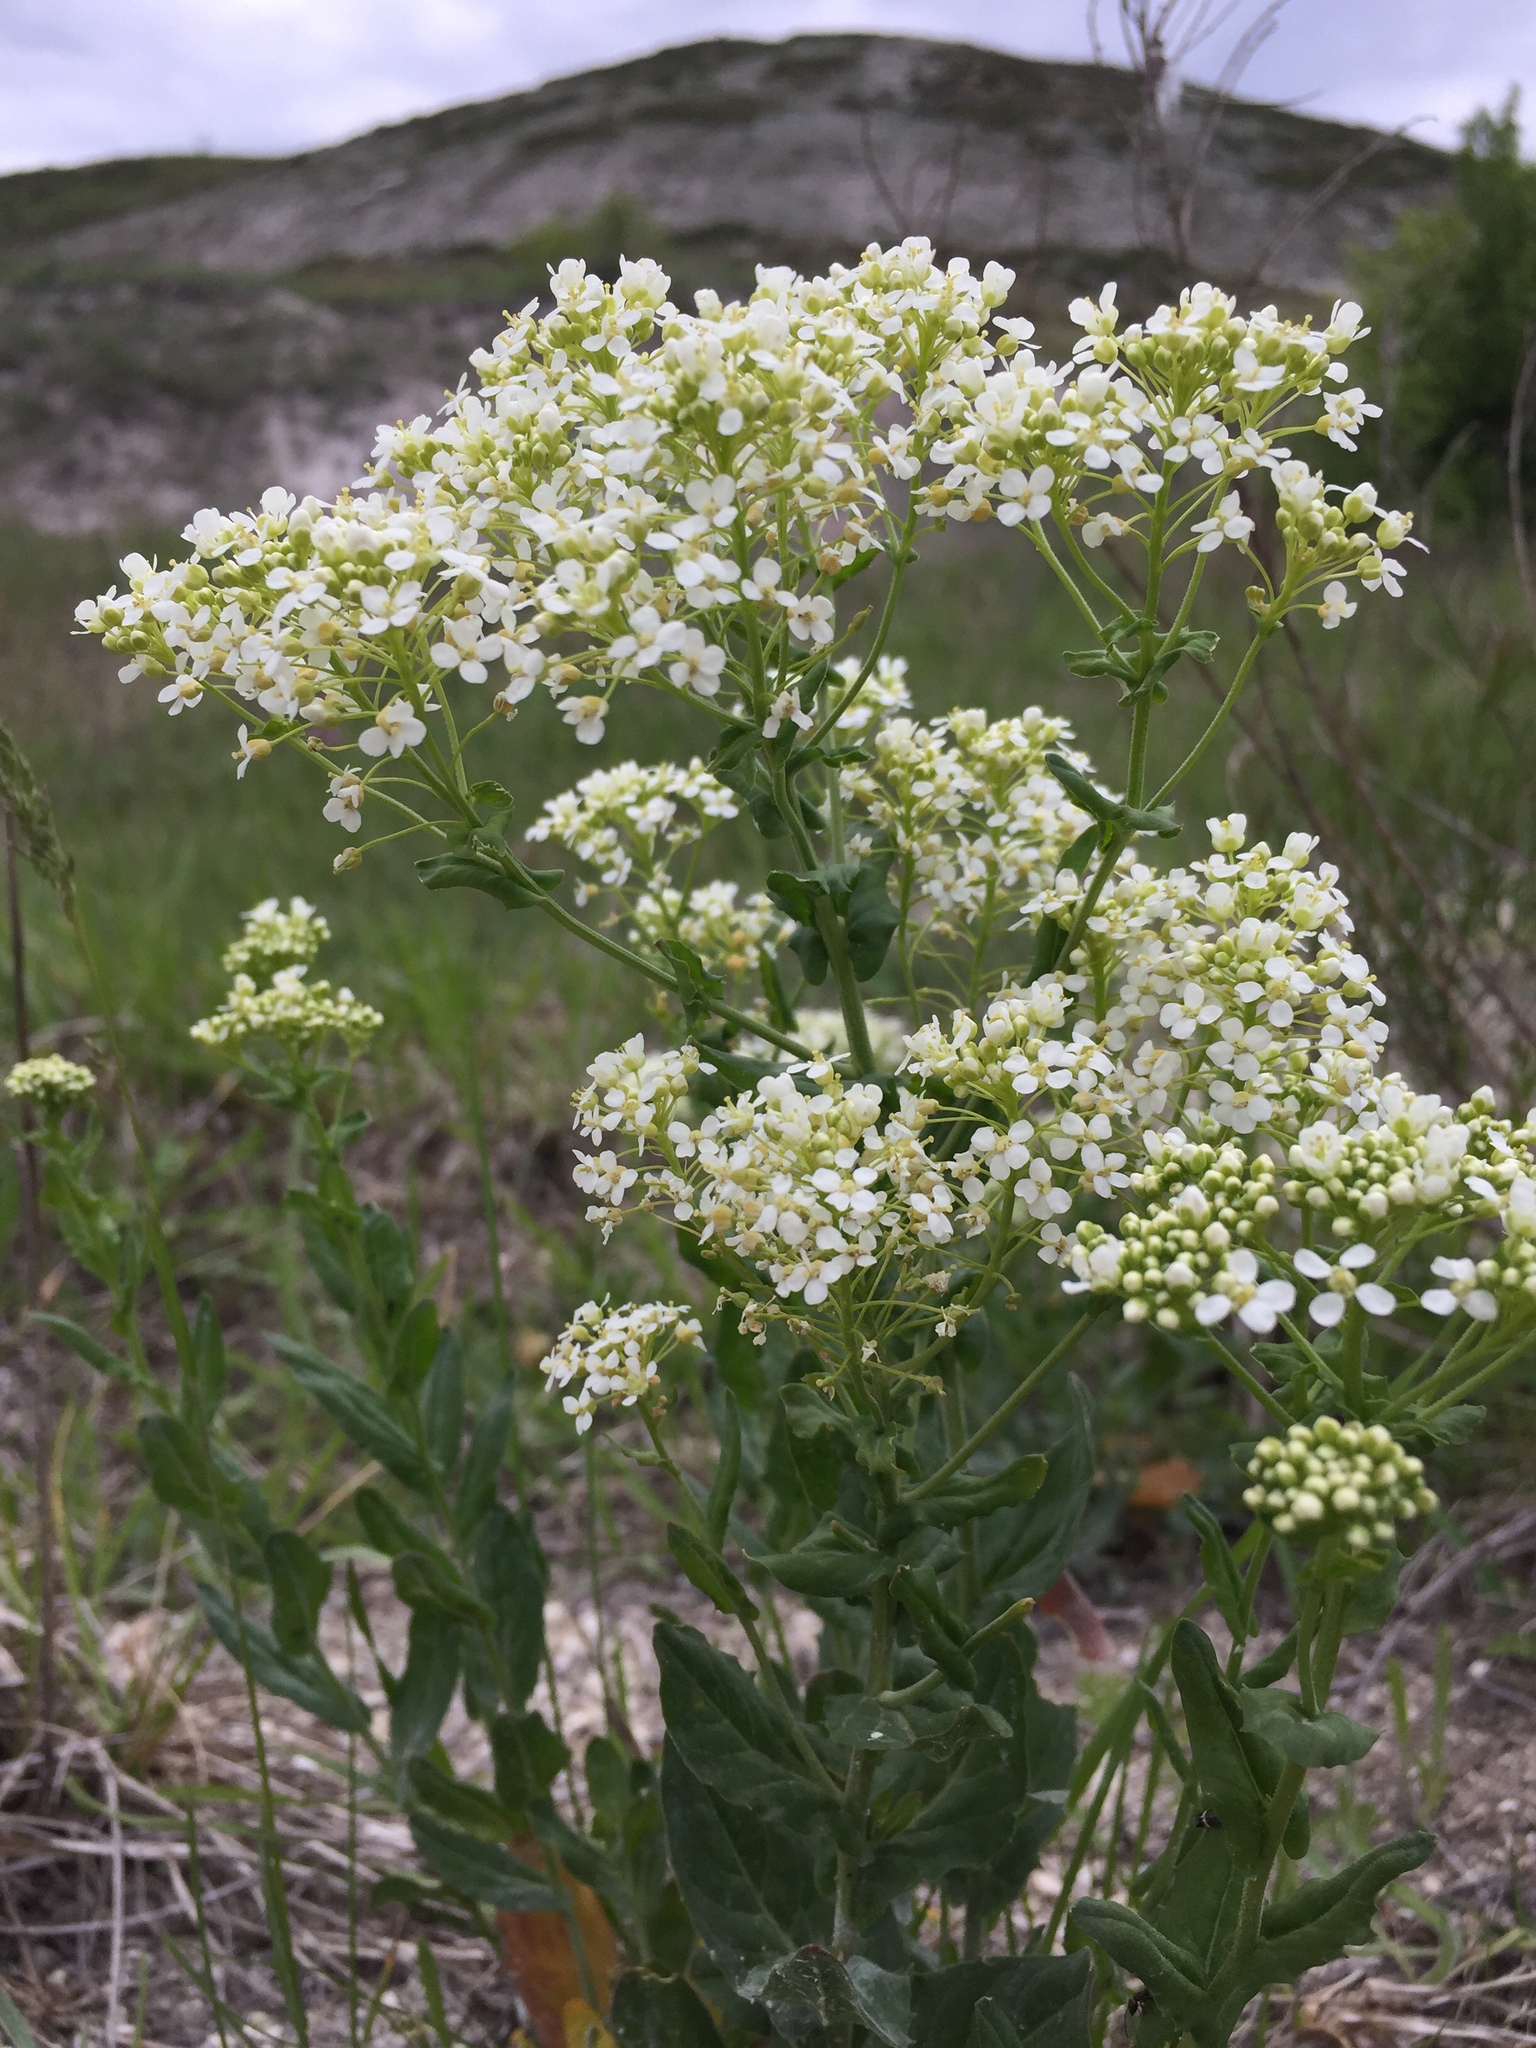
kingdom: Plantae
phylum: Tracheophyta
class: Magnoliopsida
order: Brassicales
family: Brassicaceae
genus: Lepidium
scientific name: Lepidium draba
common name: Hoary cress
